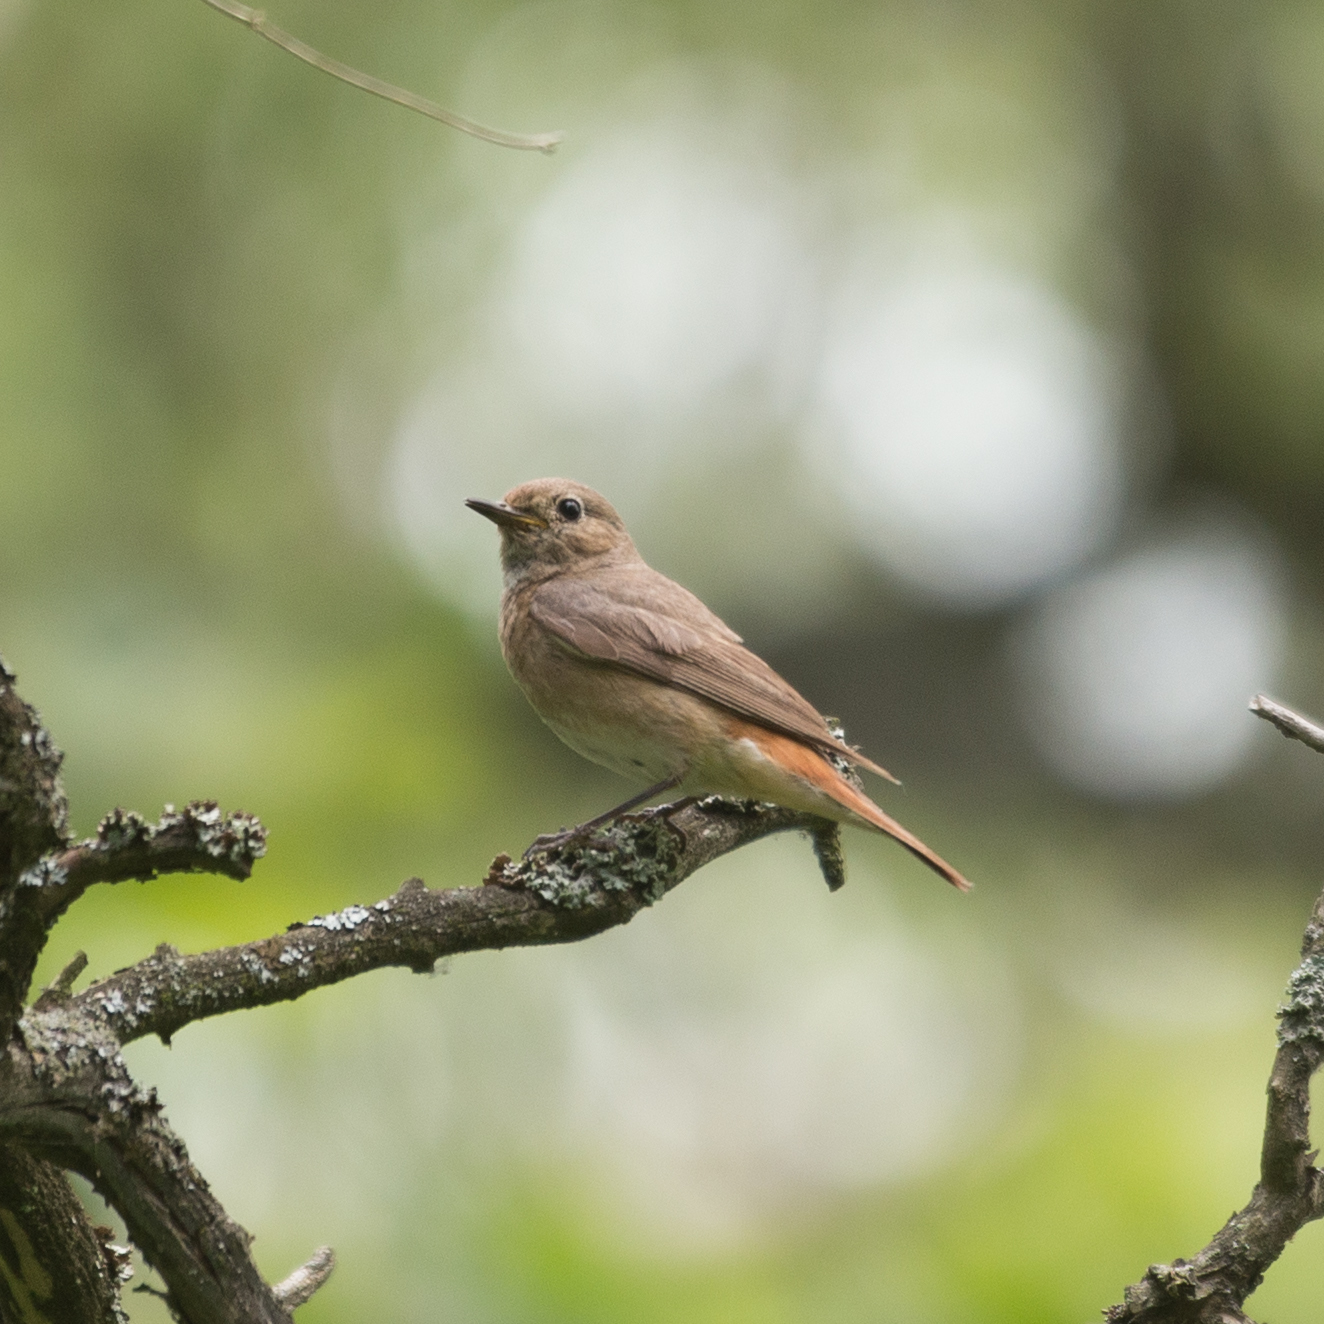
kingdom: Animalia
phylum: Chordata
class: Aves
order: Passeriformes
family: Muscicapidae
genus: Phoenicurus
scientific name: Phoenicurus phoenicurus
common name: Common redstart
